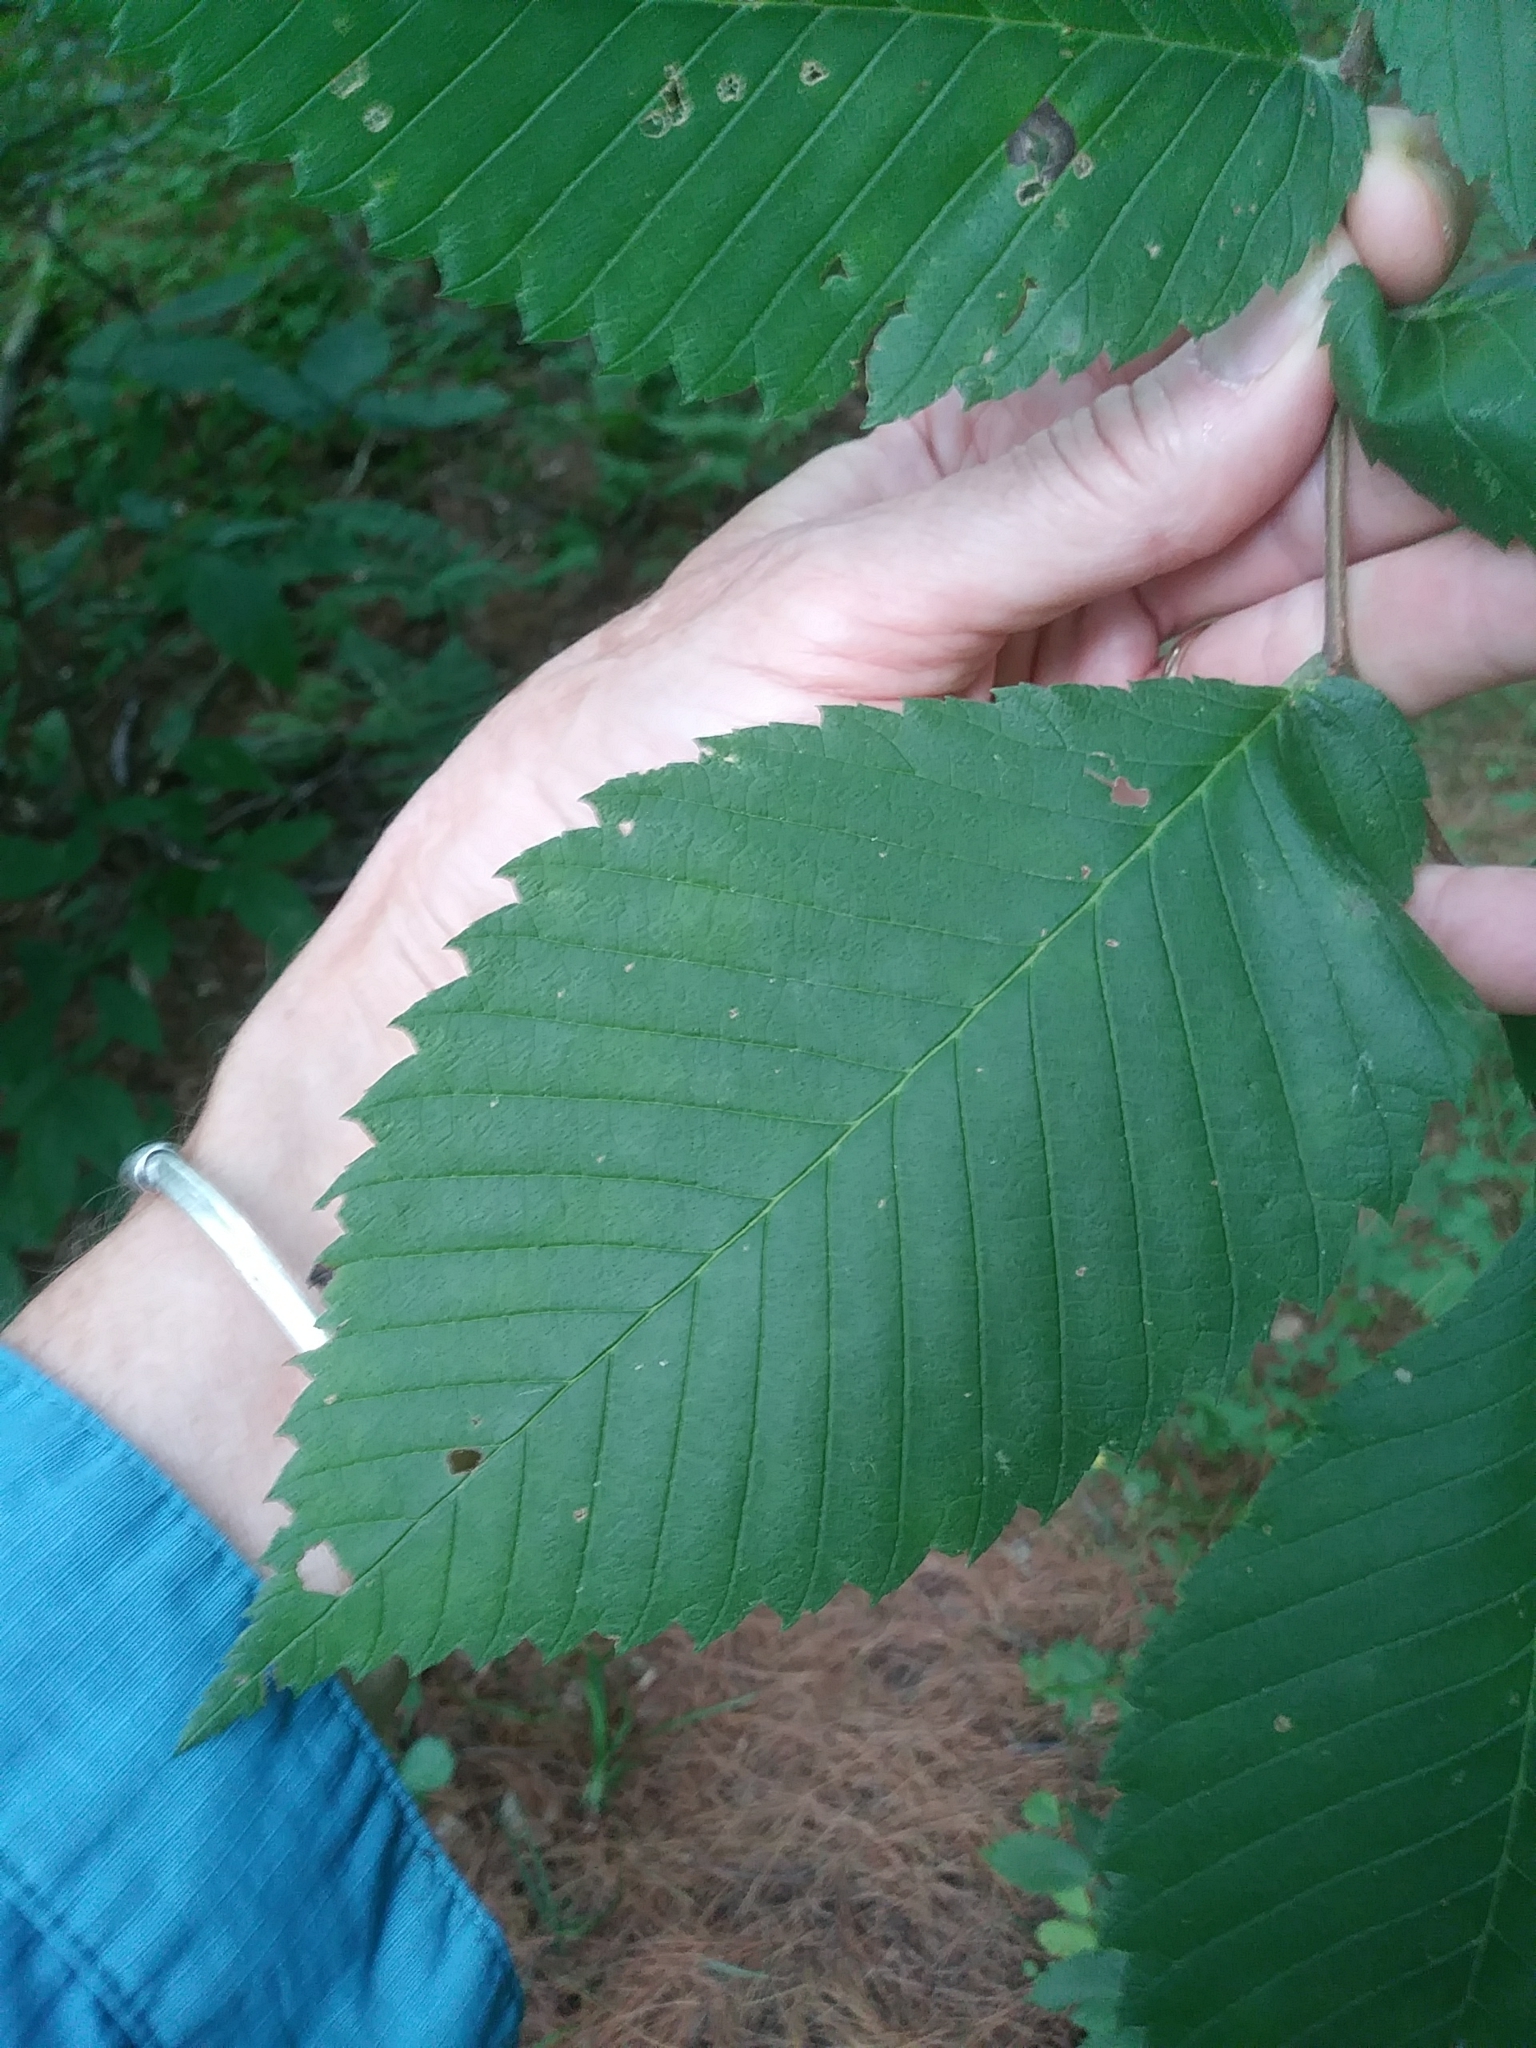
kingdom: Plantae
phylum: Tracheophyta
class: Magnoliopsida
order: Rosales
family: Ulmaceae
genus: Ulmus
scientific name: Ulmus americana
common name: American elm
